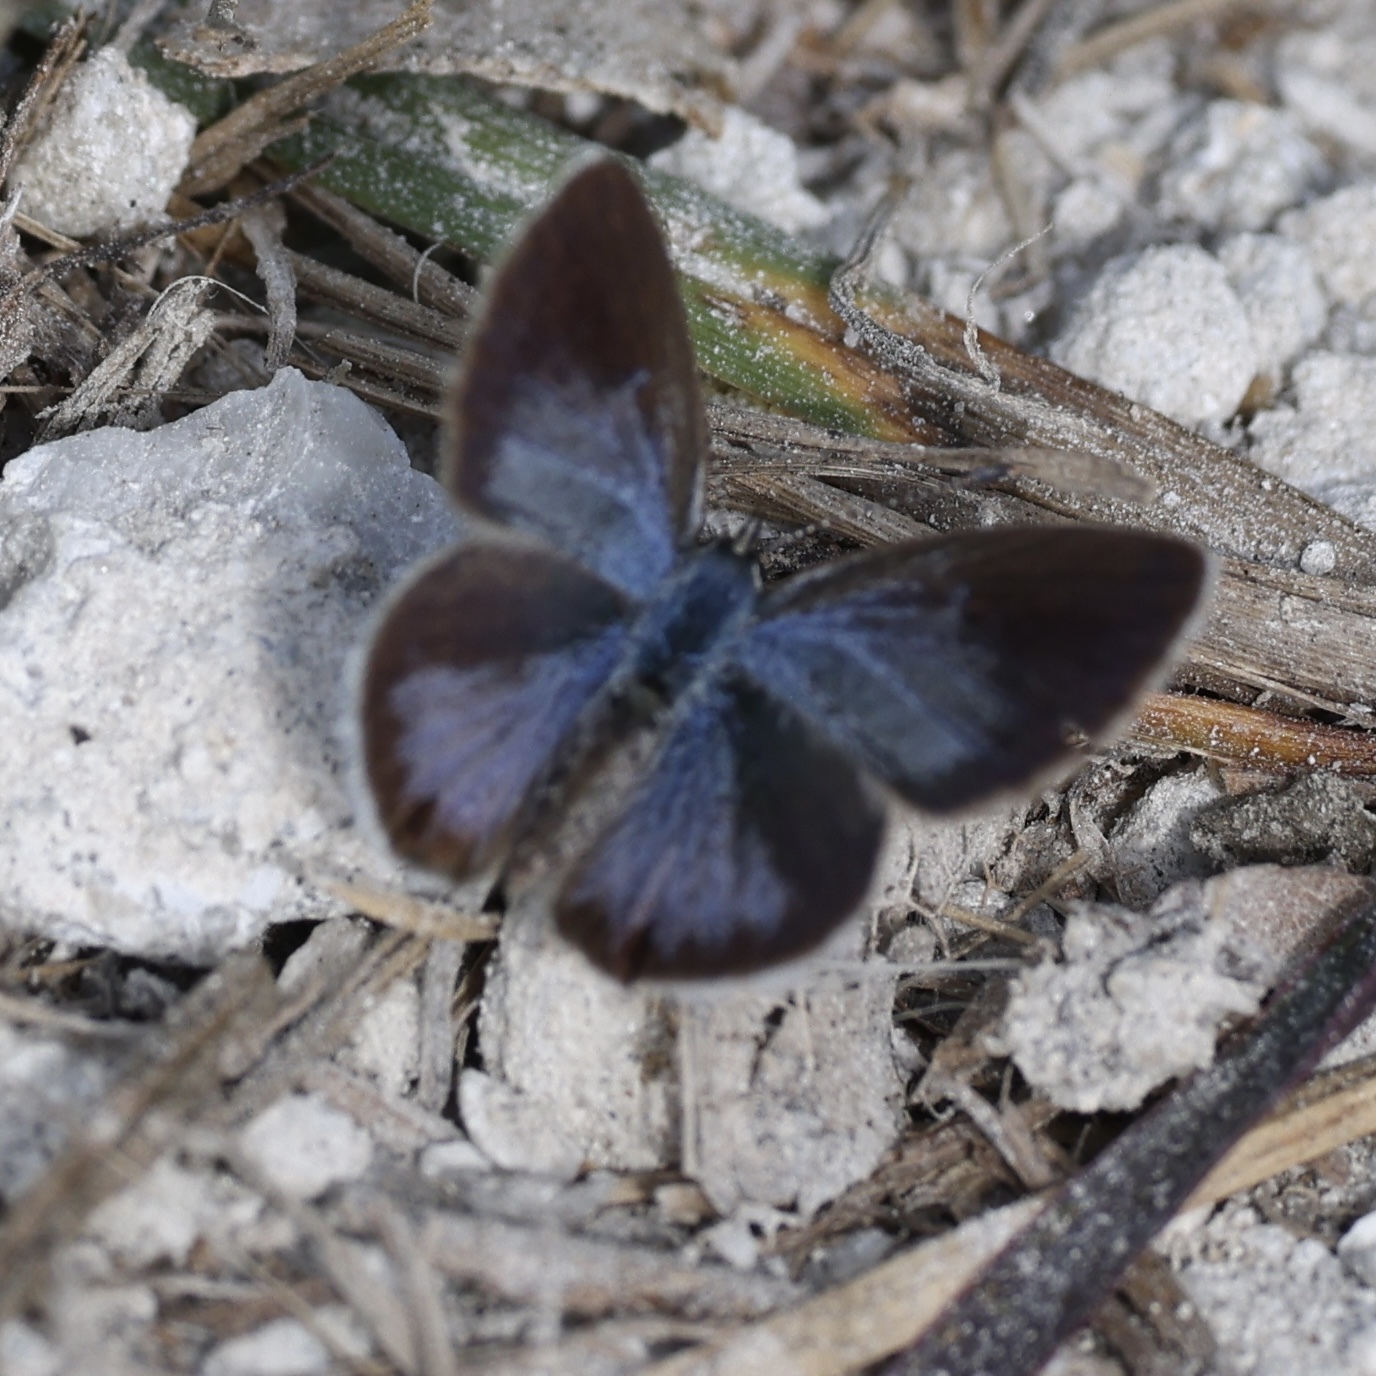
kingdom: Animalia
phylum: Arthropoda
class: Insecta
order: Lepidoptera
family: Lycaenidae
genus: Hemiargus
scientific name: Hemiargus ceraunus
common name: Ceraunus blue
